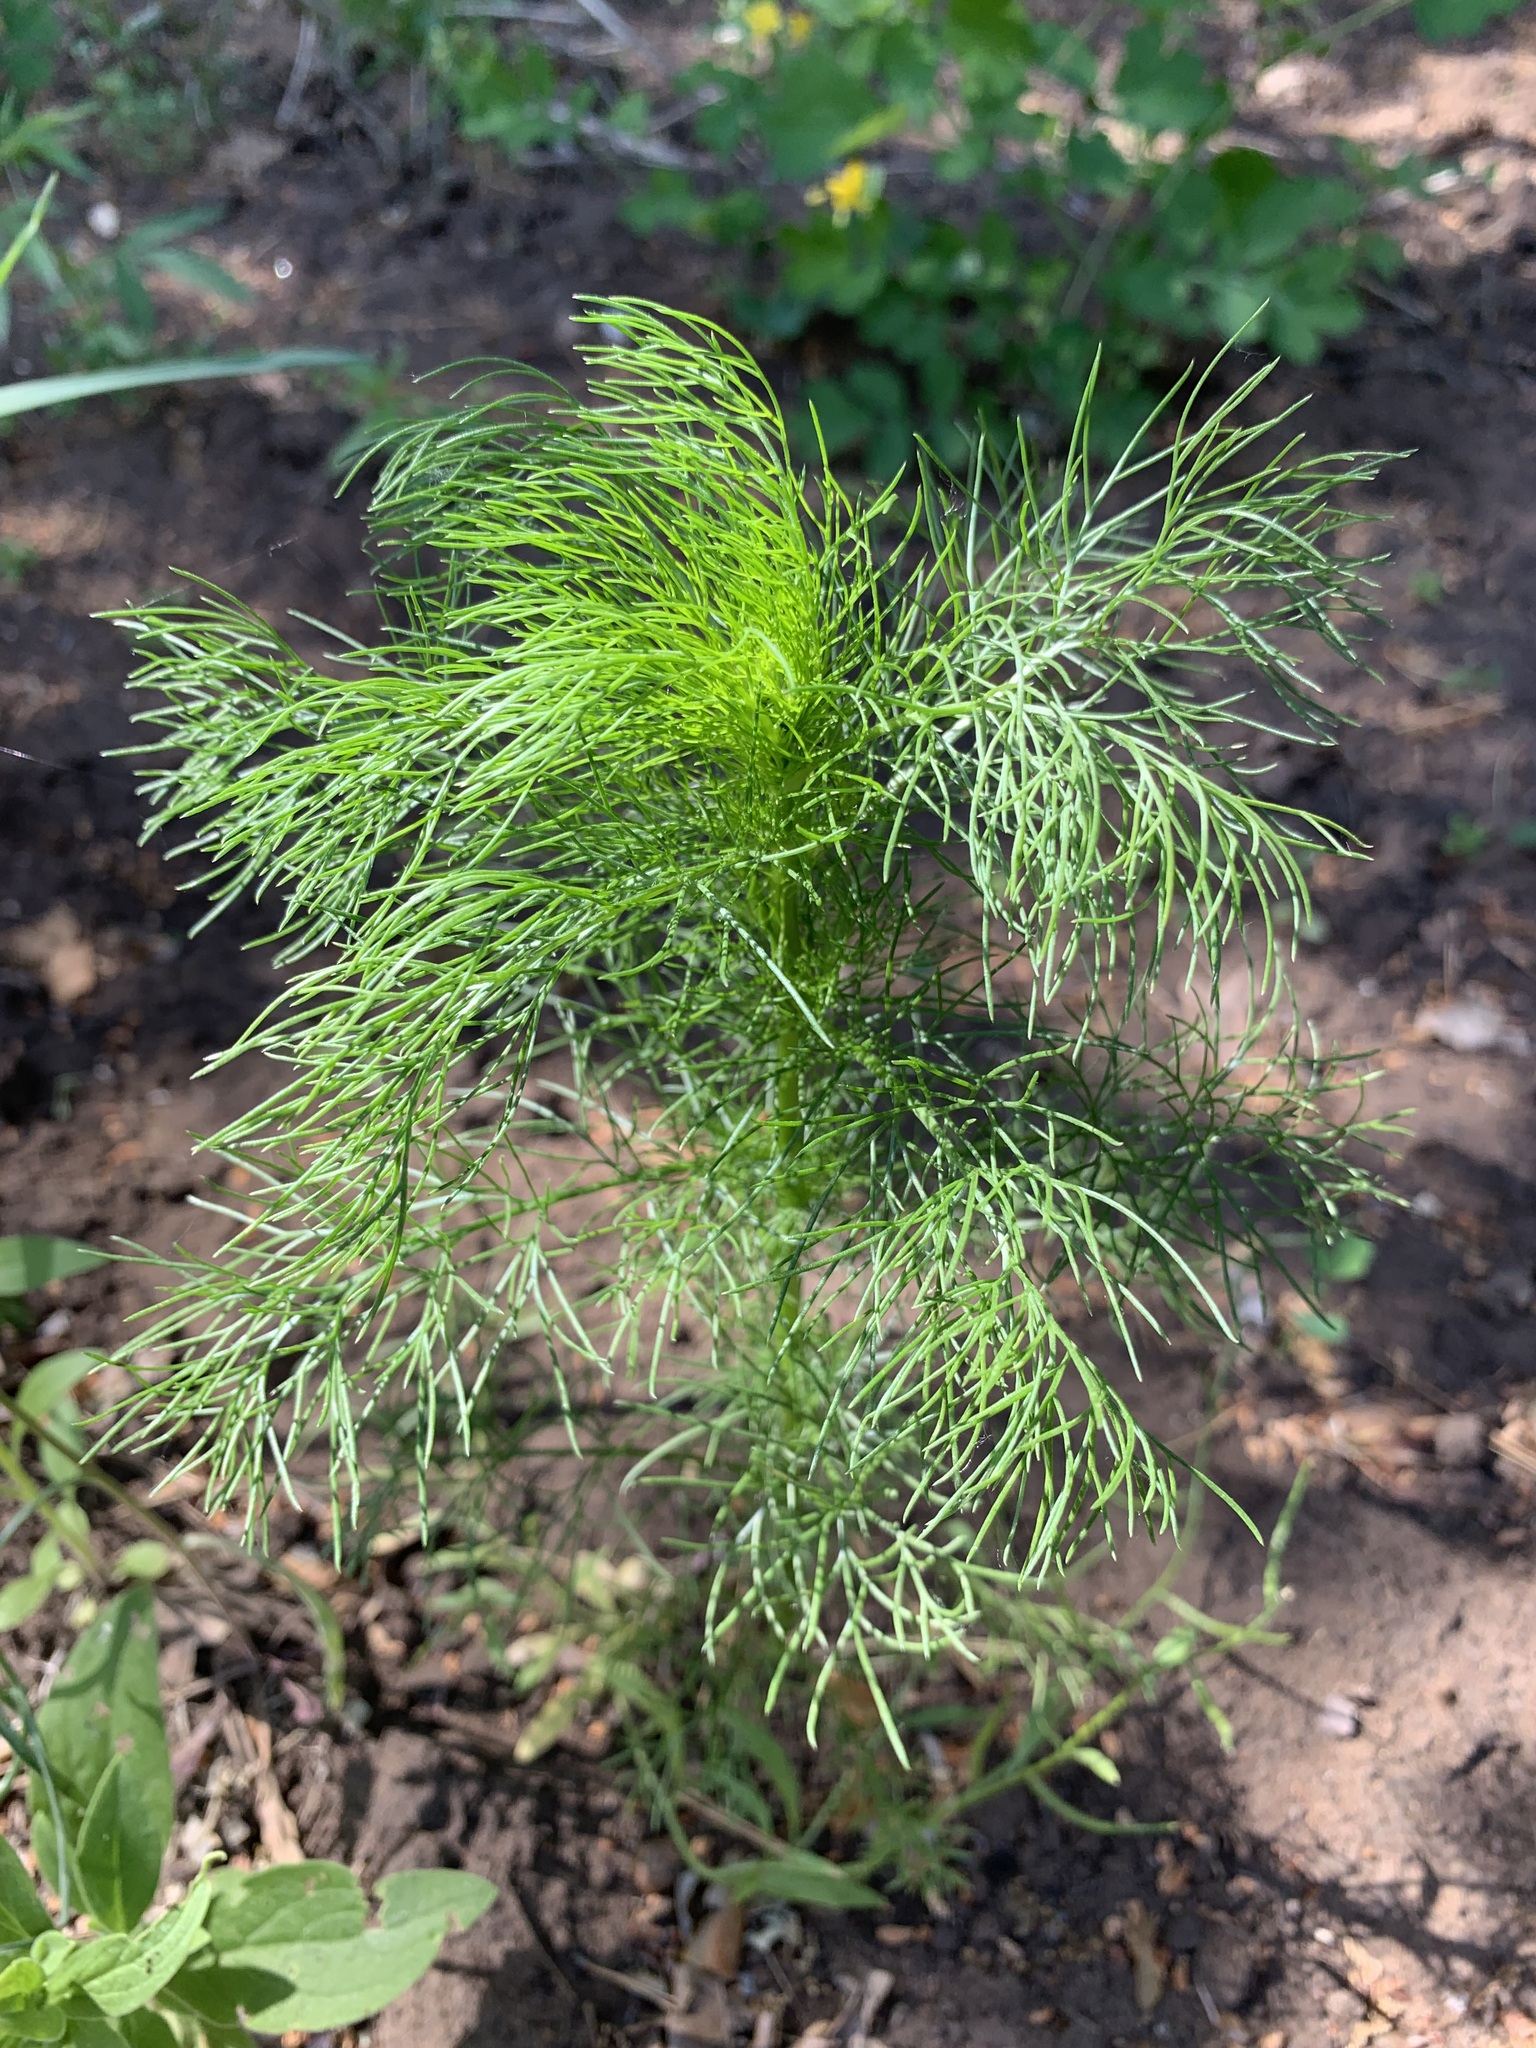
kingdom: Plantae
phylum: Tracheophyta
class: Magnoliopsida
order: Asterales
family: Asteraceae
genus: Tripleurospermum
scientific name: Tripleurospermum inodorum
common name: Scentless mayweed
